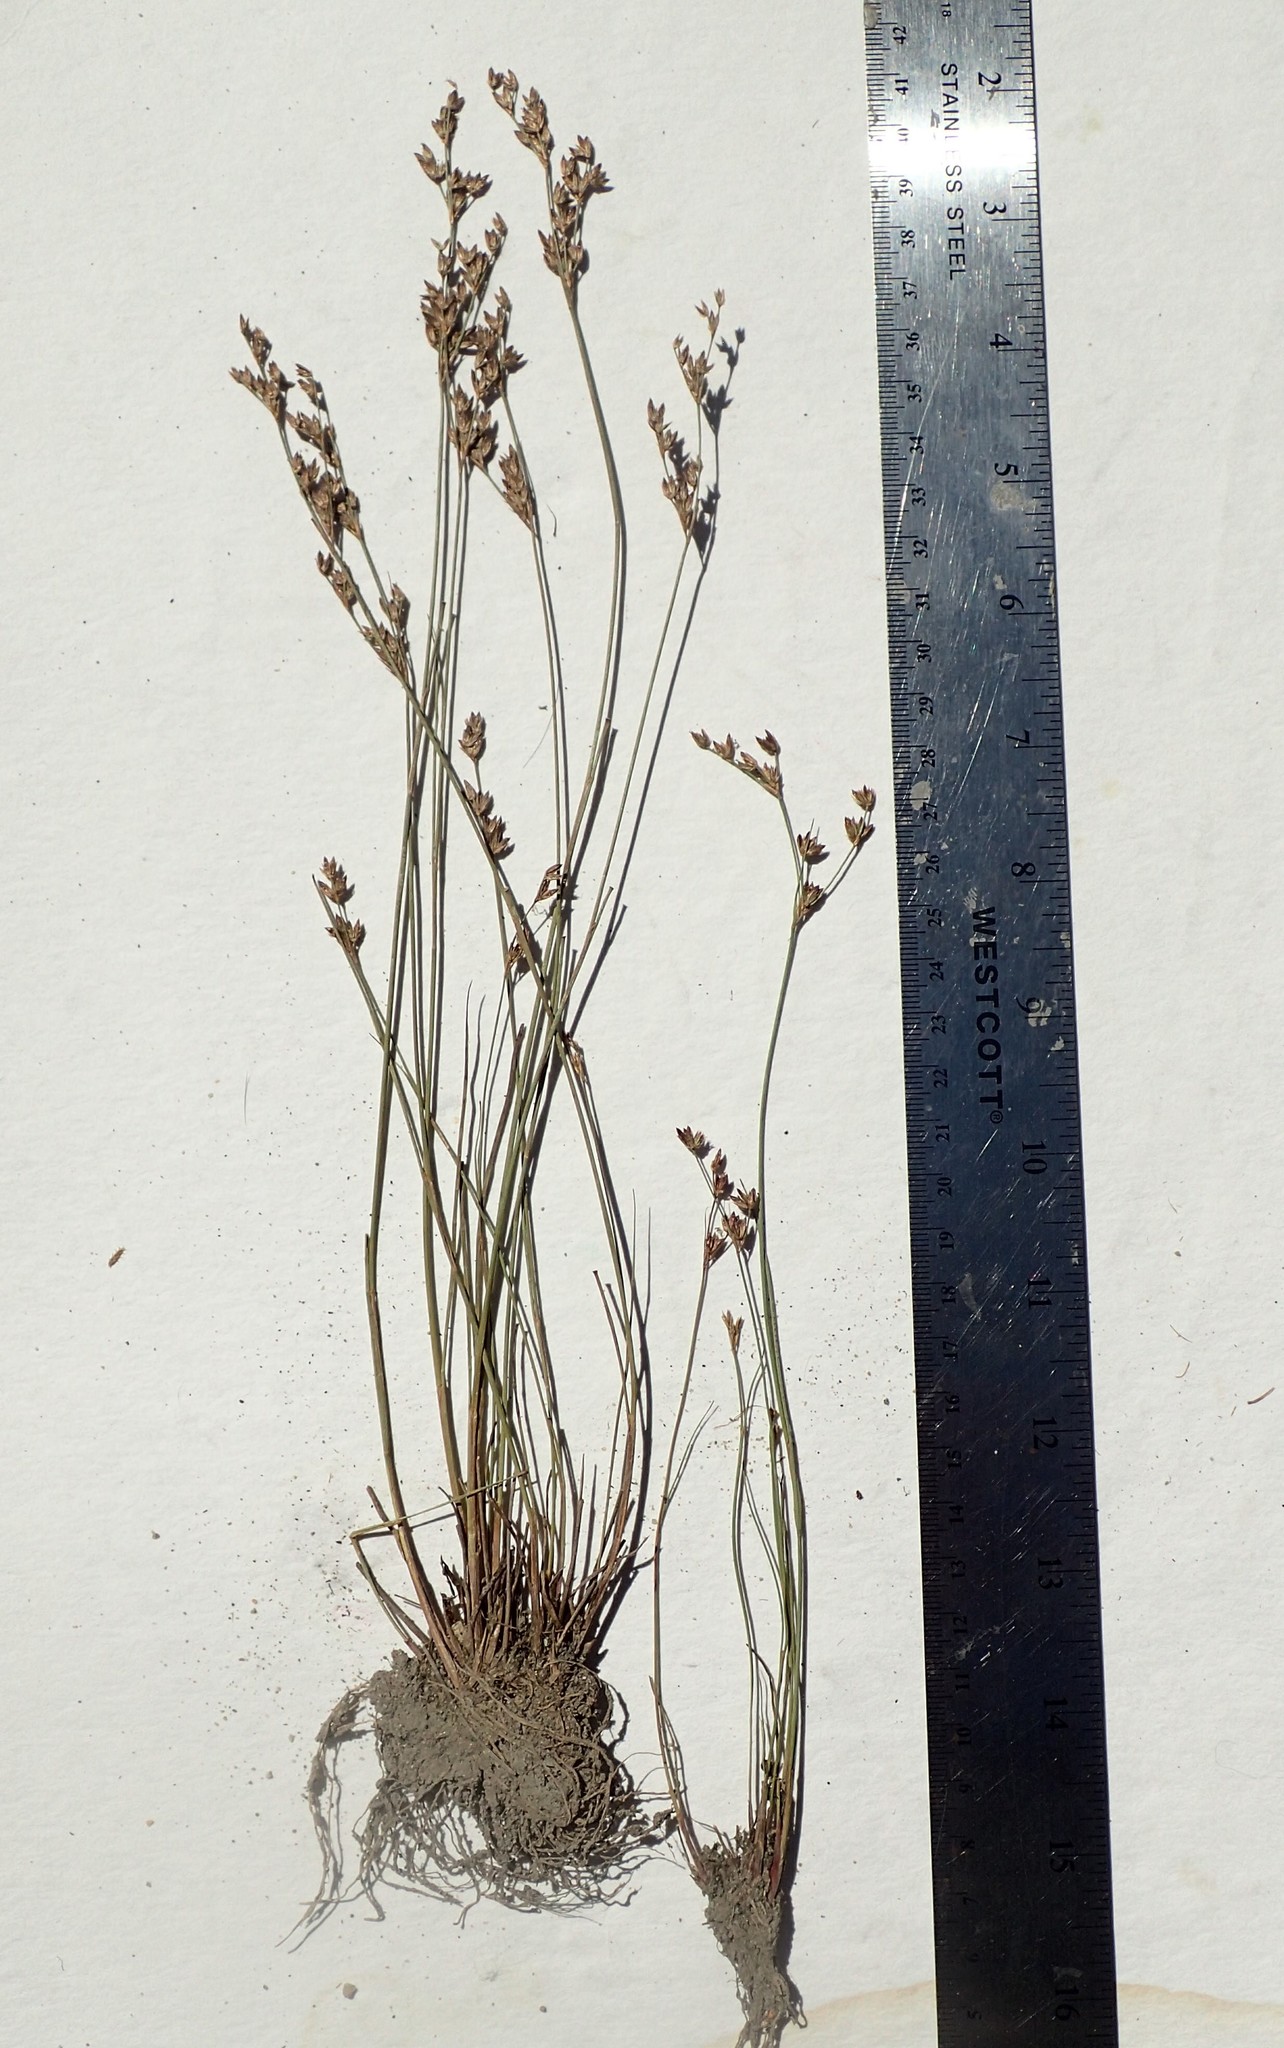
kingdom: Plantae
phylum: Tracheophyta
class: Liliopsida
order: Poales
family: Juncaceae
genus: Juncus
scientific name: Juncus tweedyi
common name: Narrow-panicled rush
